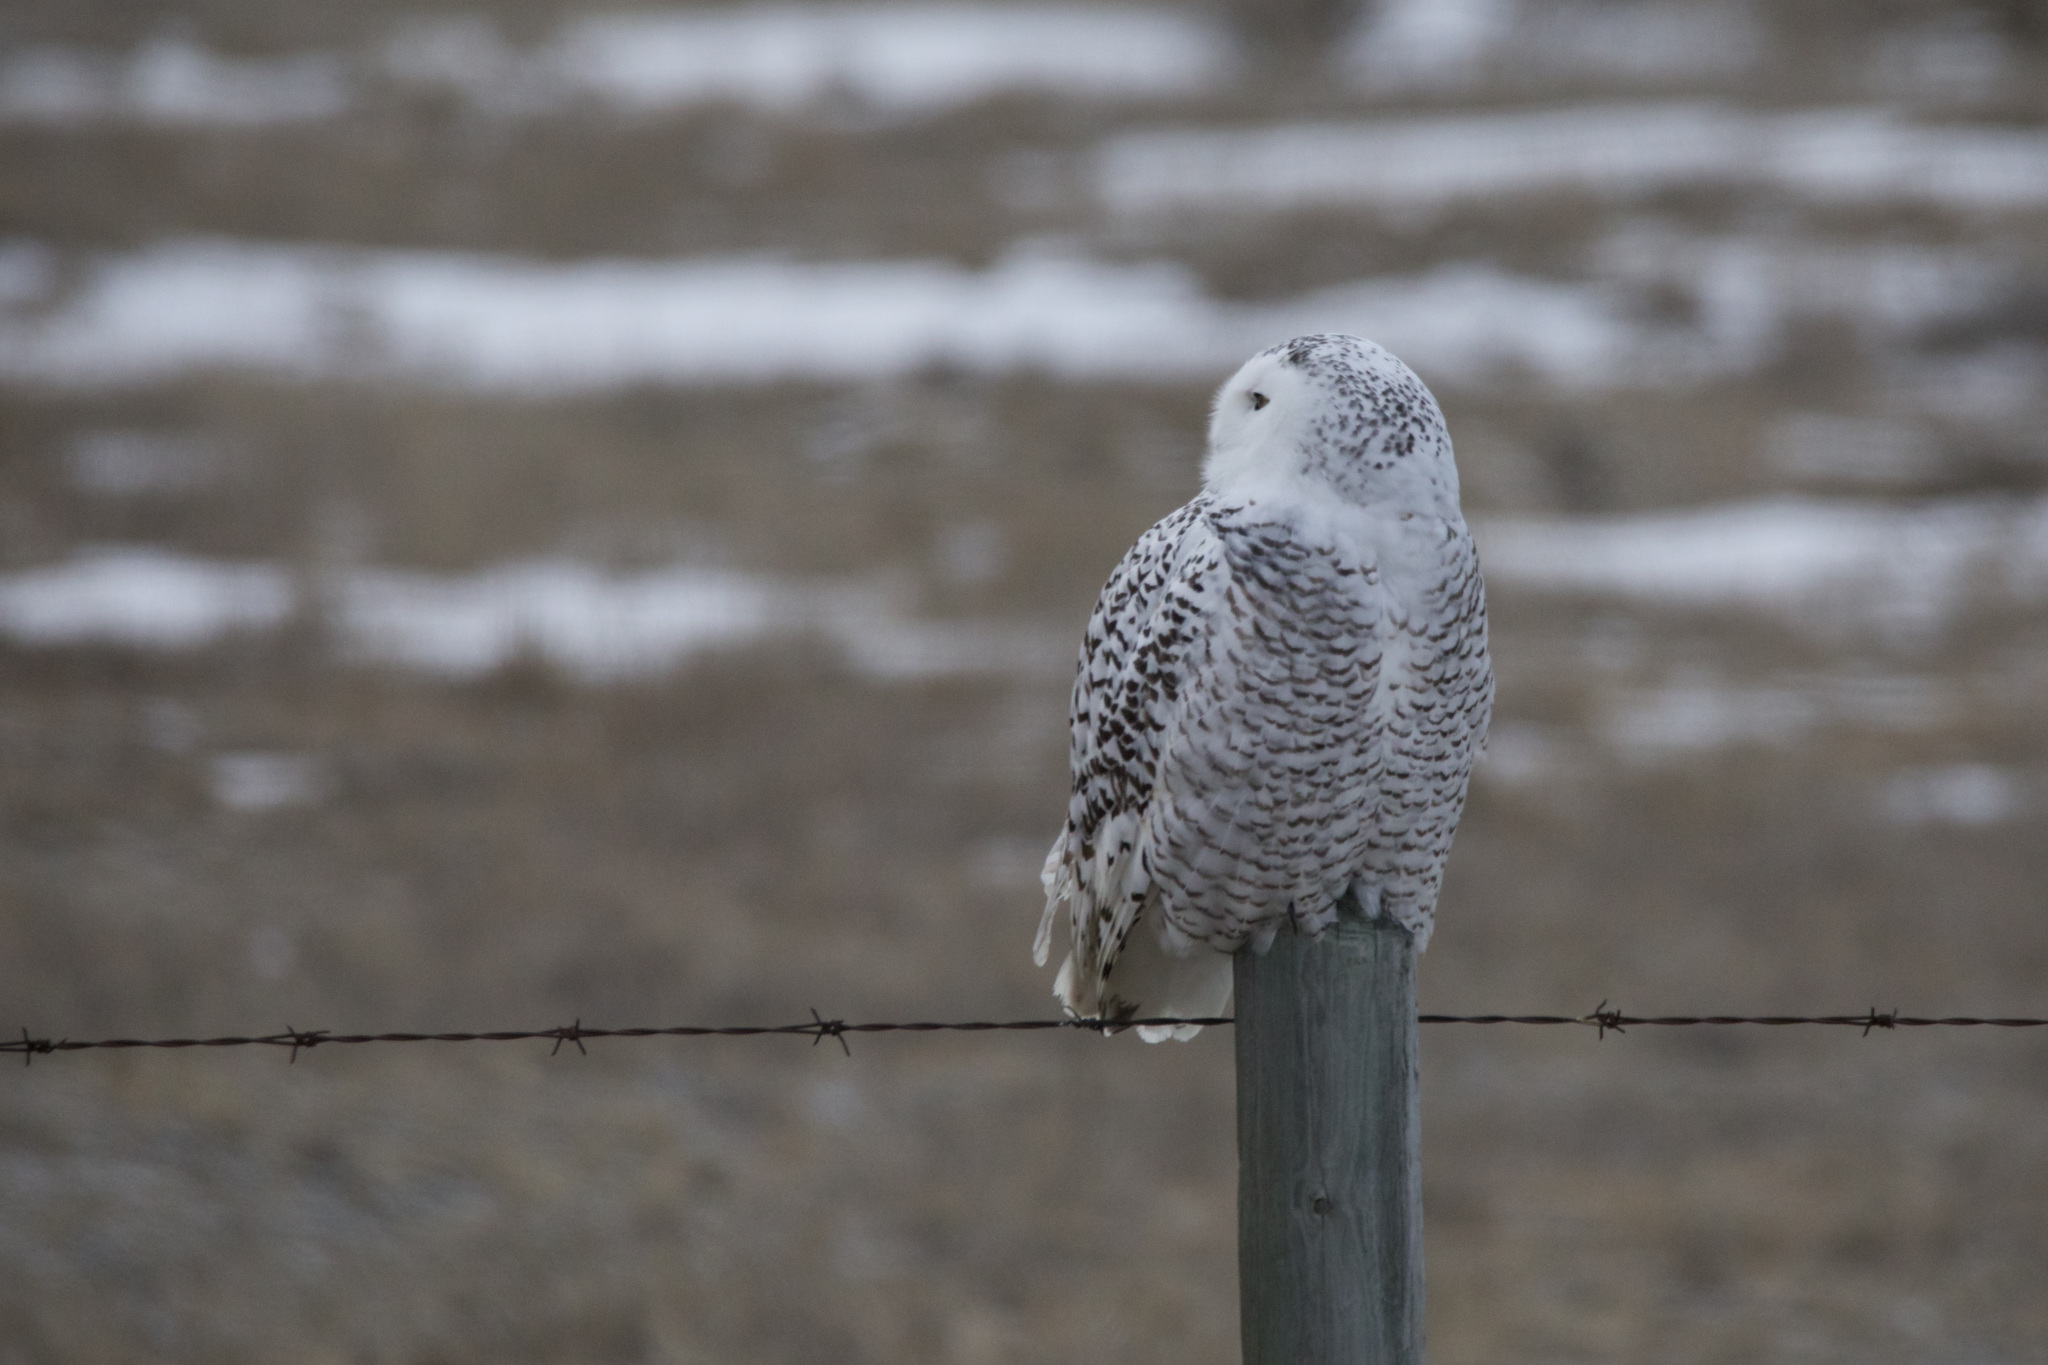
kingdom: Animalia
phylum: Chordata
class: Aves
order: Strigiformes
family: Strigidae
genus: Bubo
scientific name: Bubo scandiacus
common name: Snowy owl
